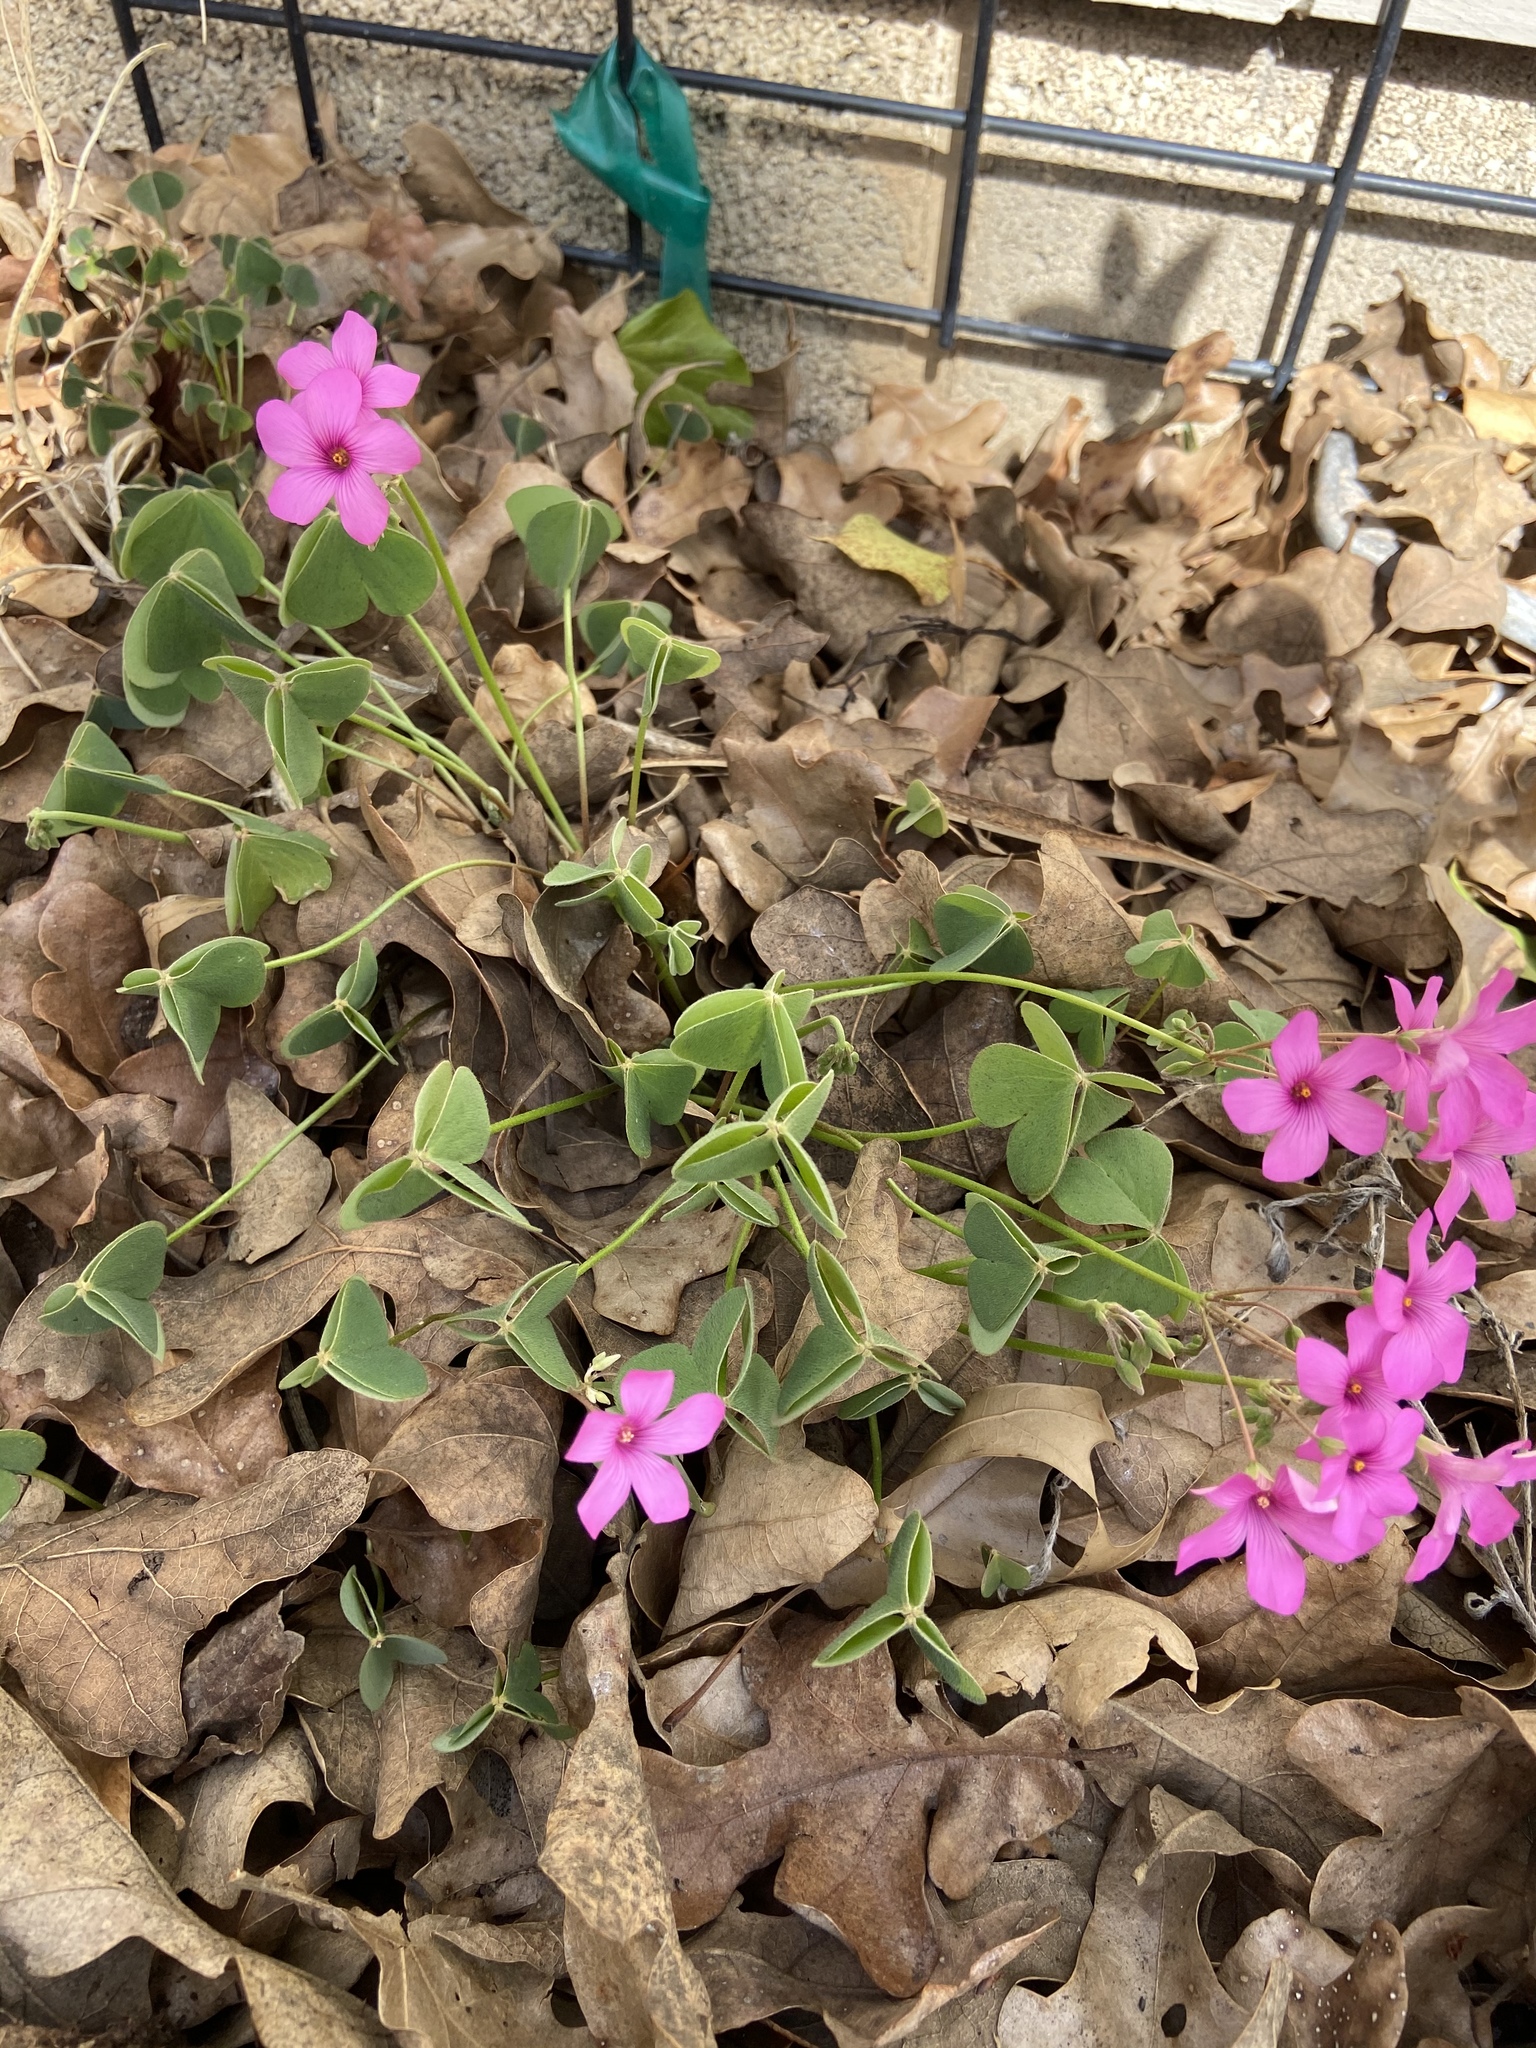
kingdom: Plantae
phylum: Tracheophyta
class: Magnoliopsida
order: Oxalidales
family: Oxalidaceae
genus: Oxalis
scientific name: Oxalis articulata
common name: Pink-sorrel
